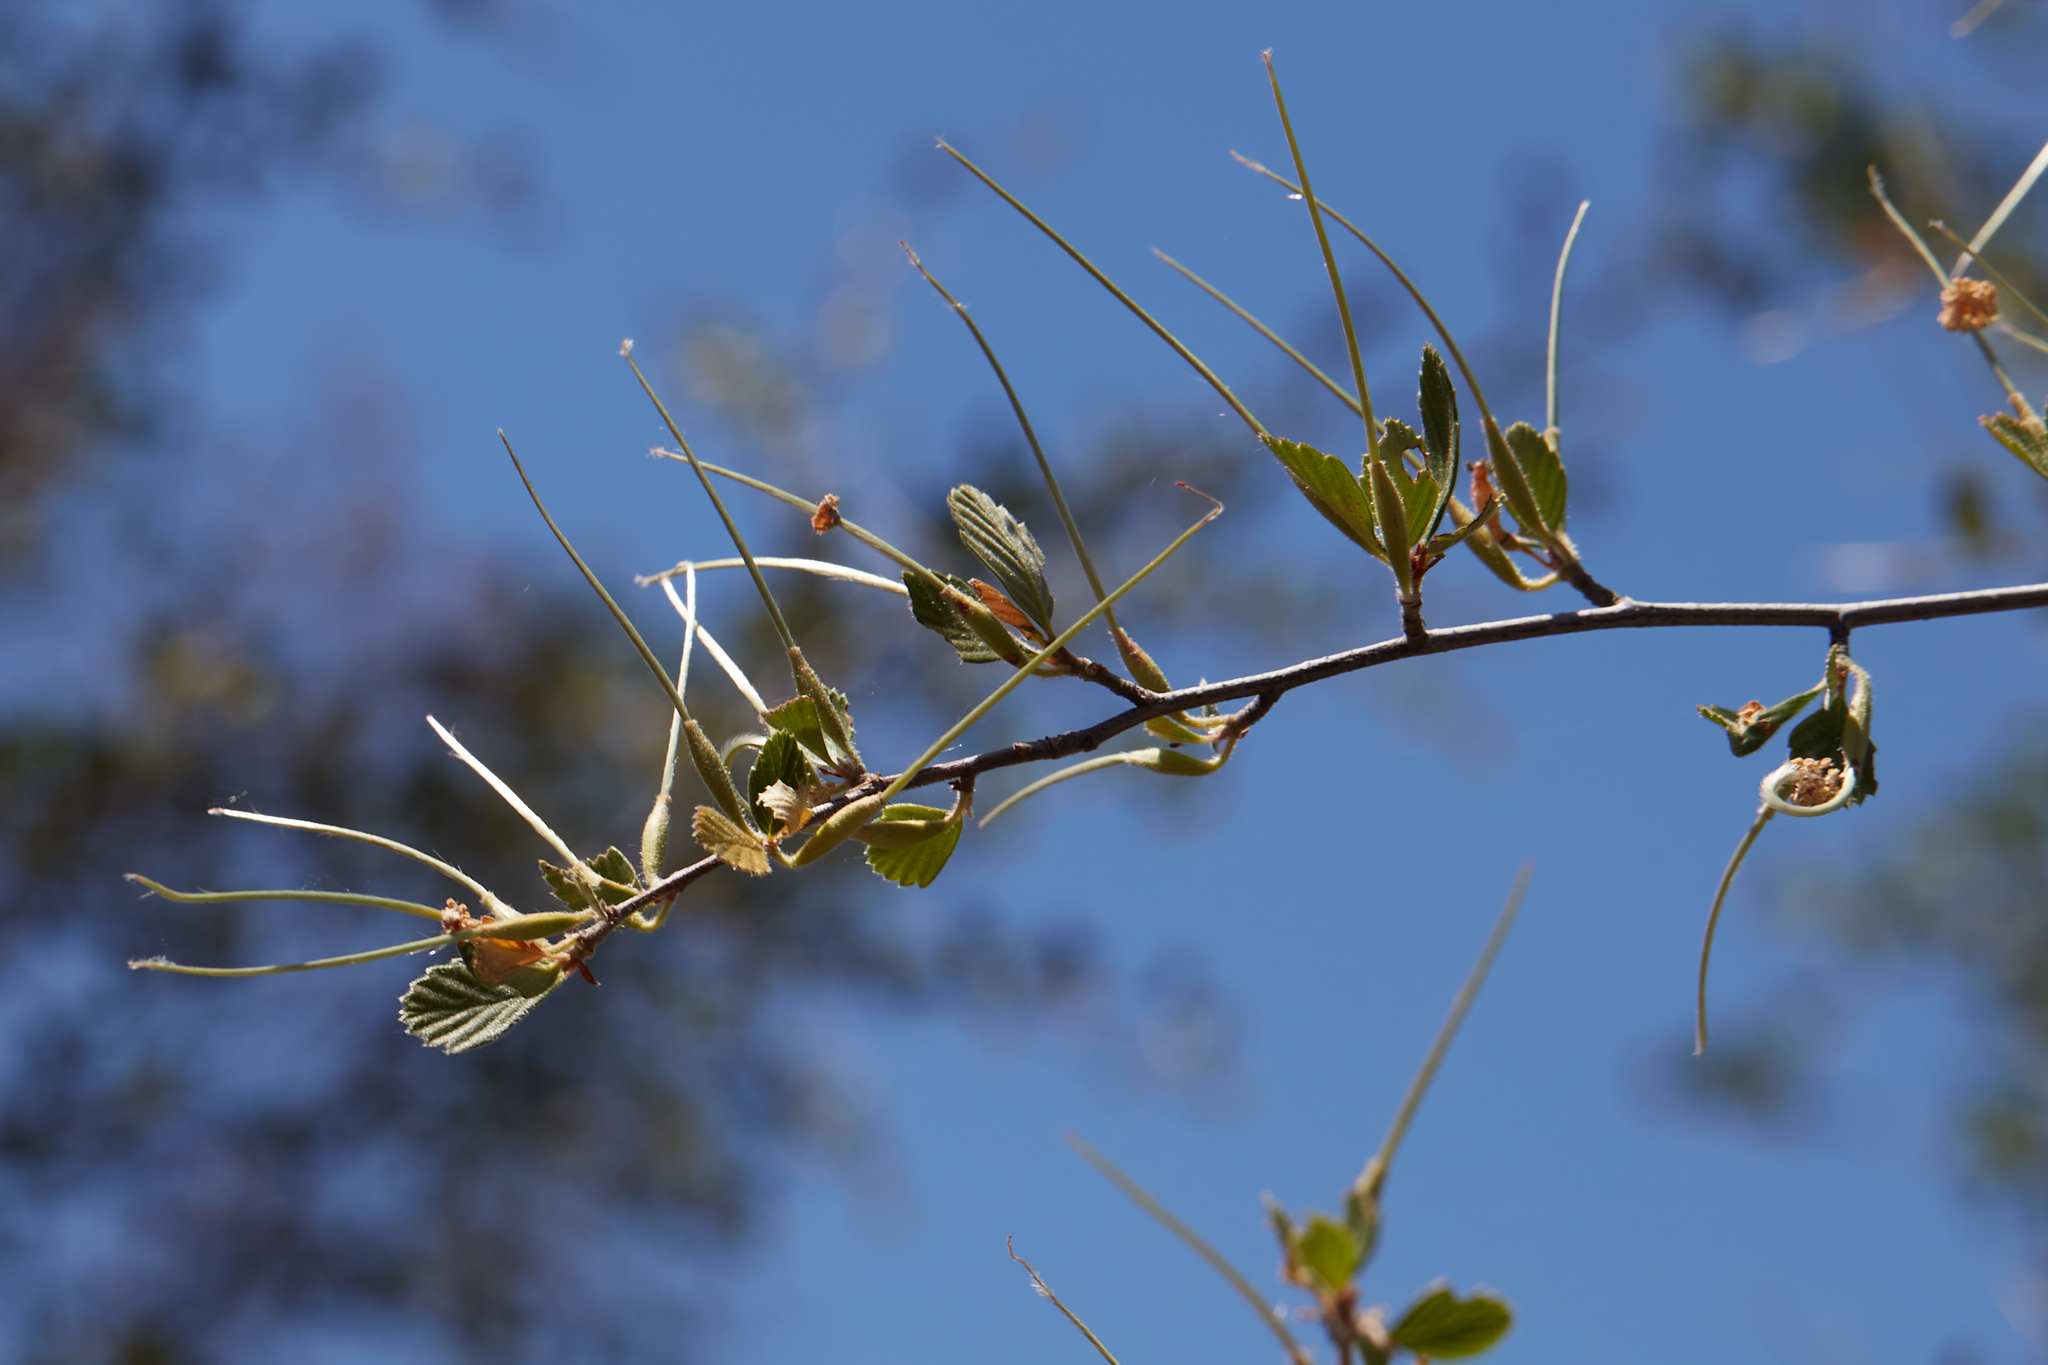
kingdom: Plantae
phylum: Tracheophyta
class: Magnoliopsida
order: Rosales
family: Rosaceae
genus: Cercocarpus
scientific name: Cercocarpus betuloides
